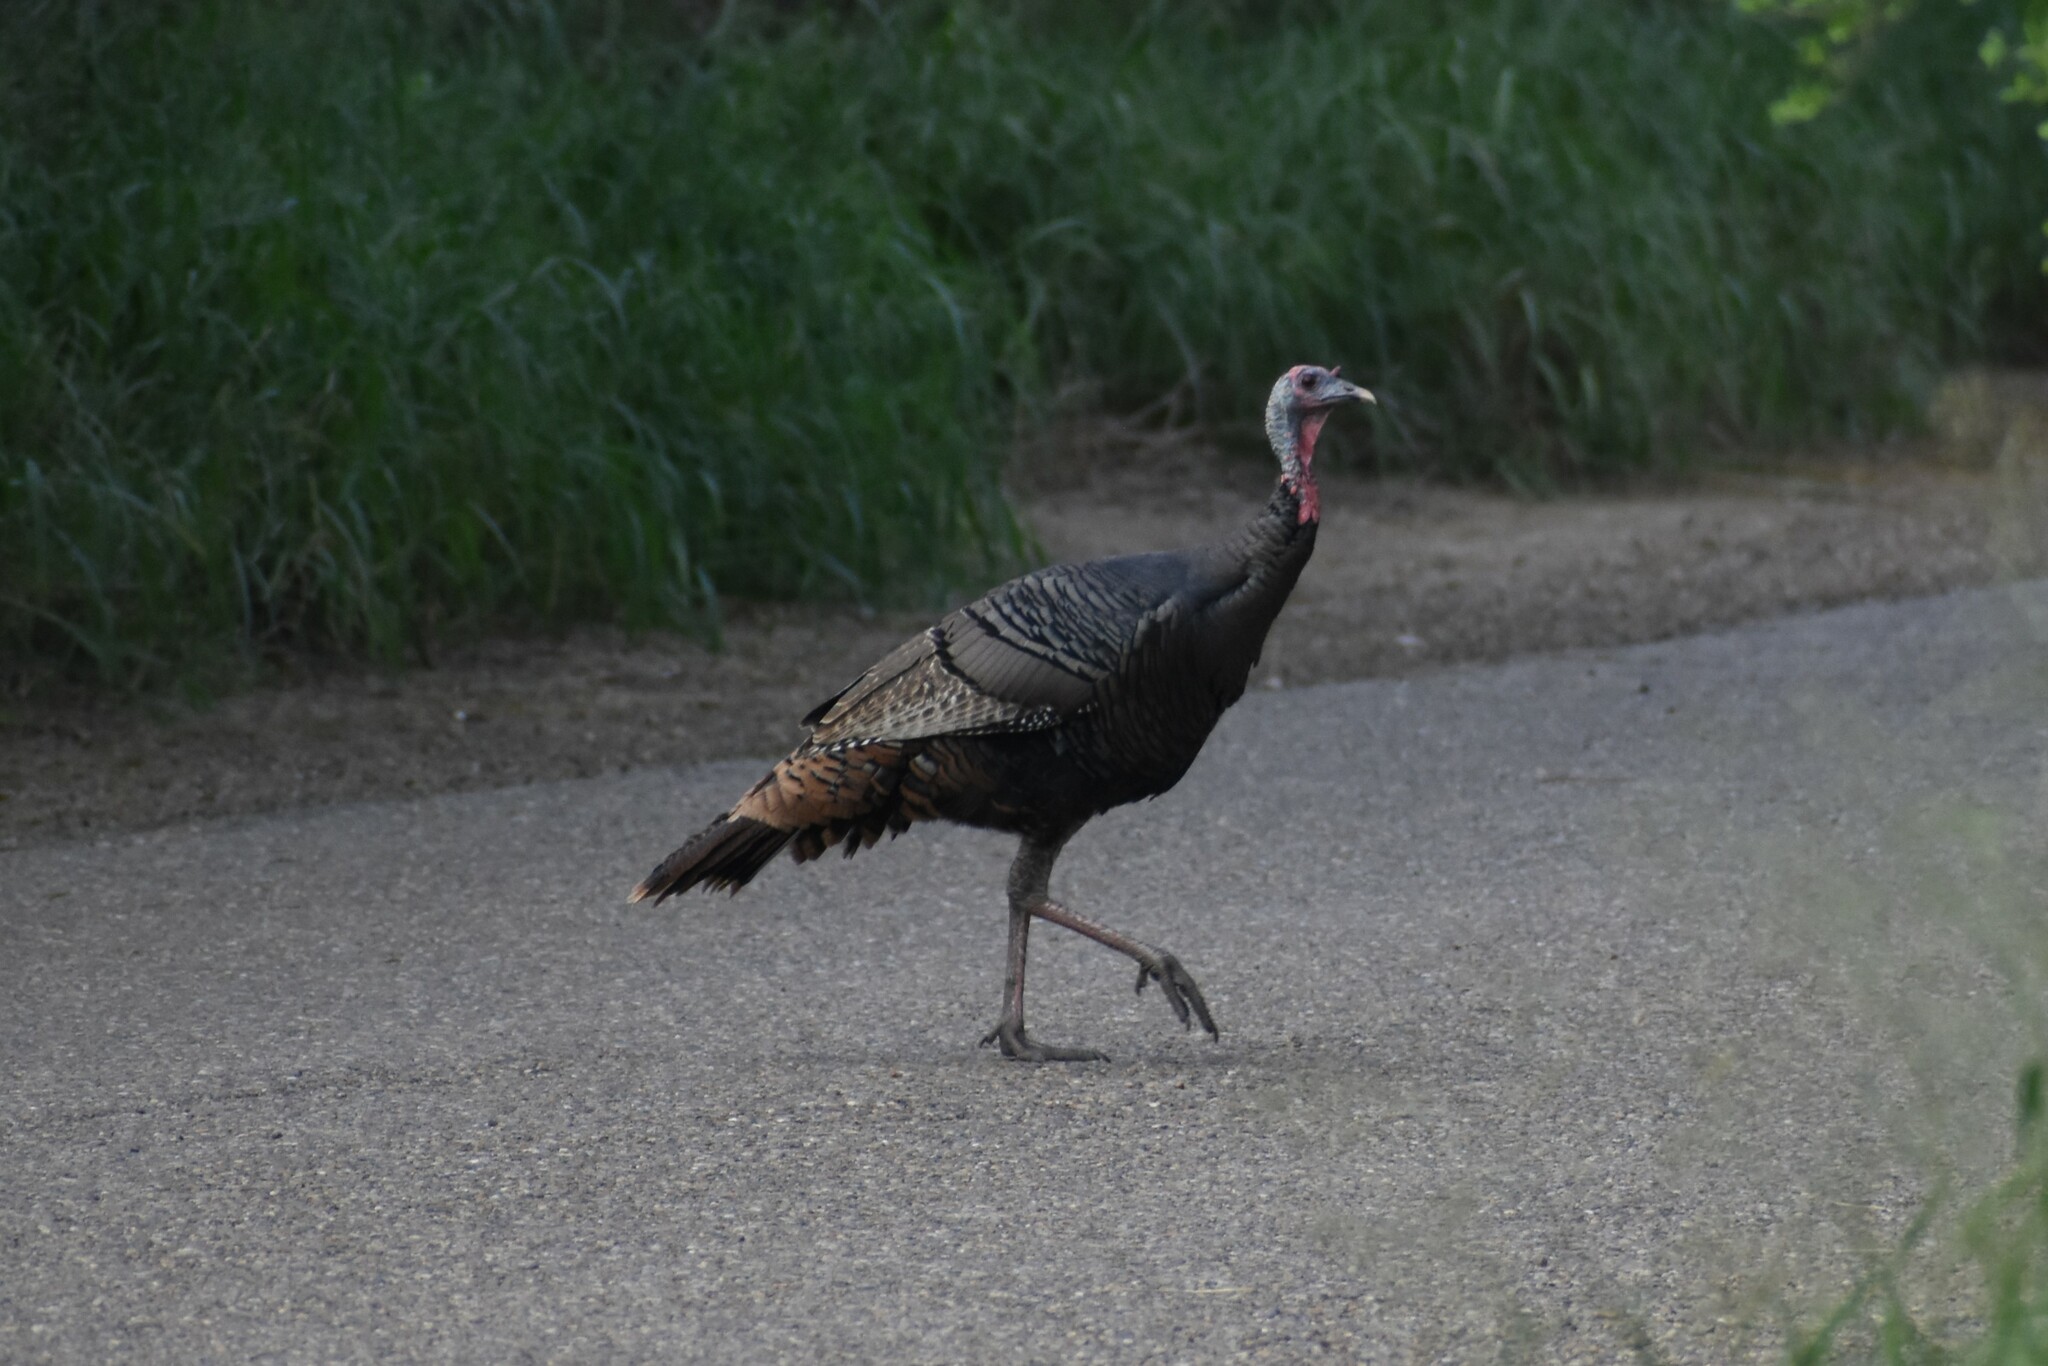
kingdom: Animalia
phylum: Chordata
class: Aves
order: Galliformes
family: Phasianidae
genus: Meleagris
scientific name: Meleagris gallopavo
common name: Wild turkey
